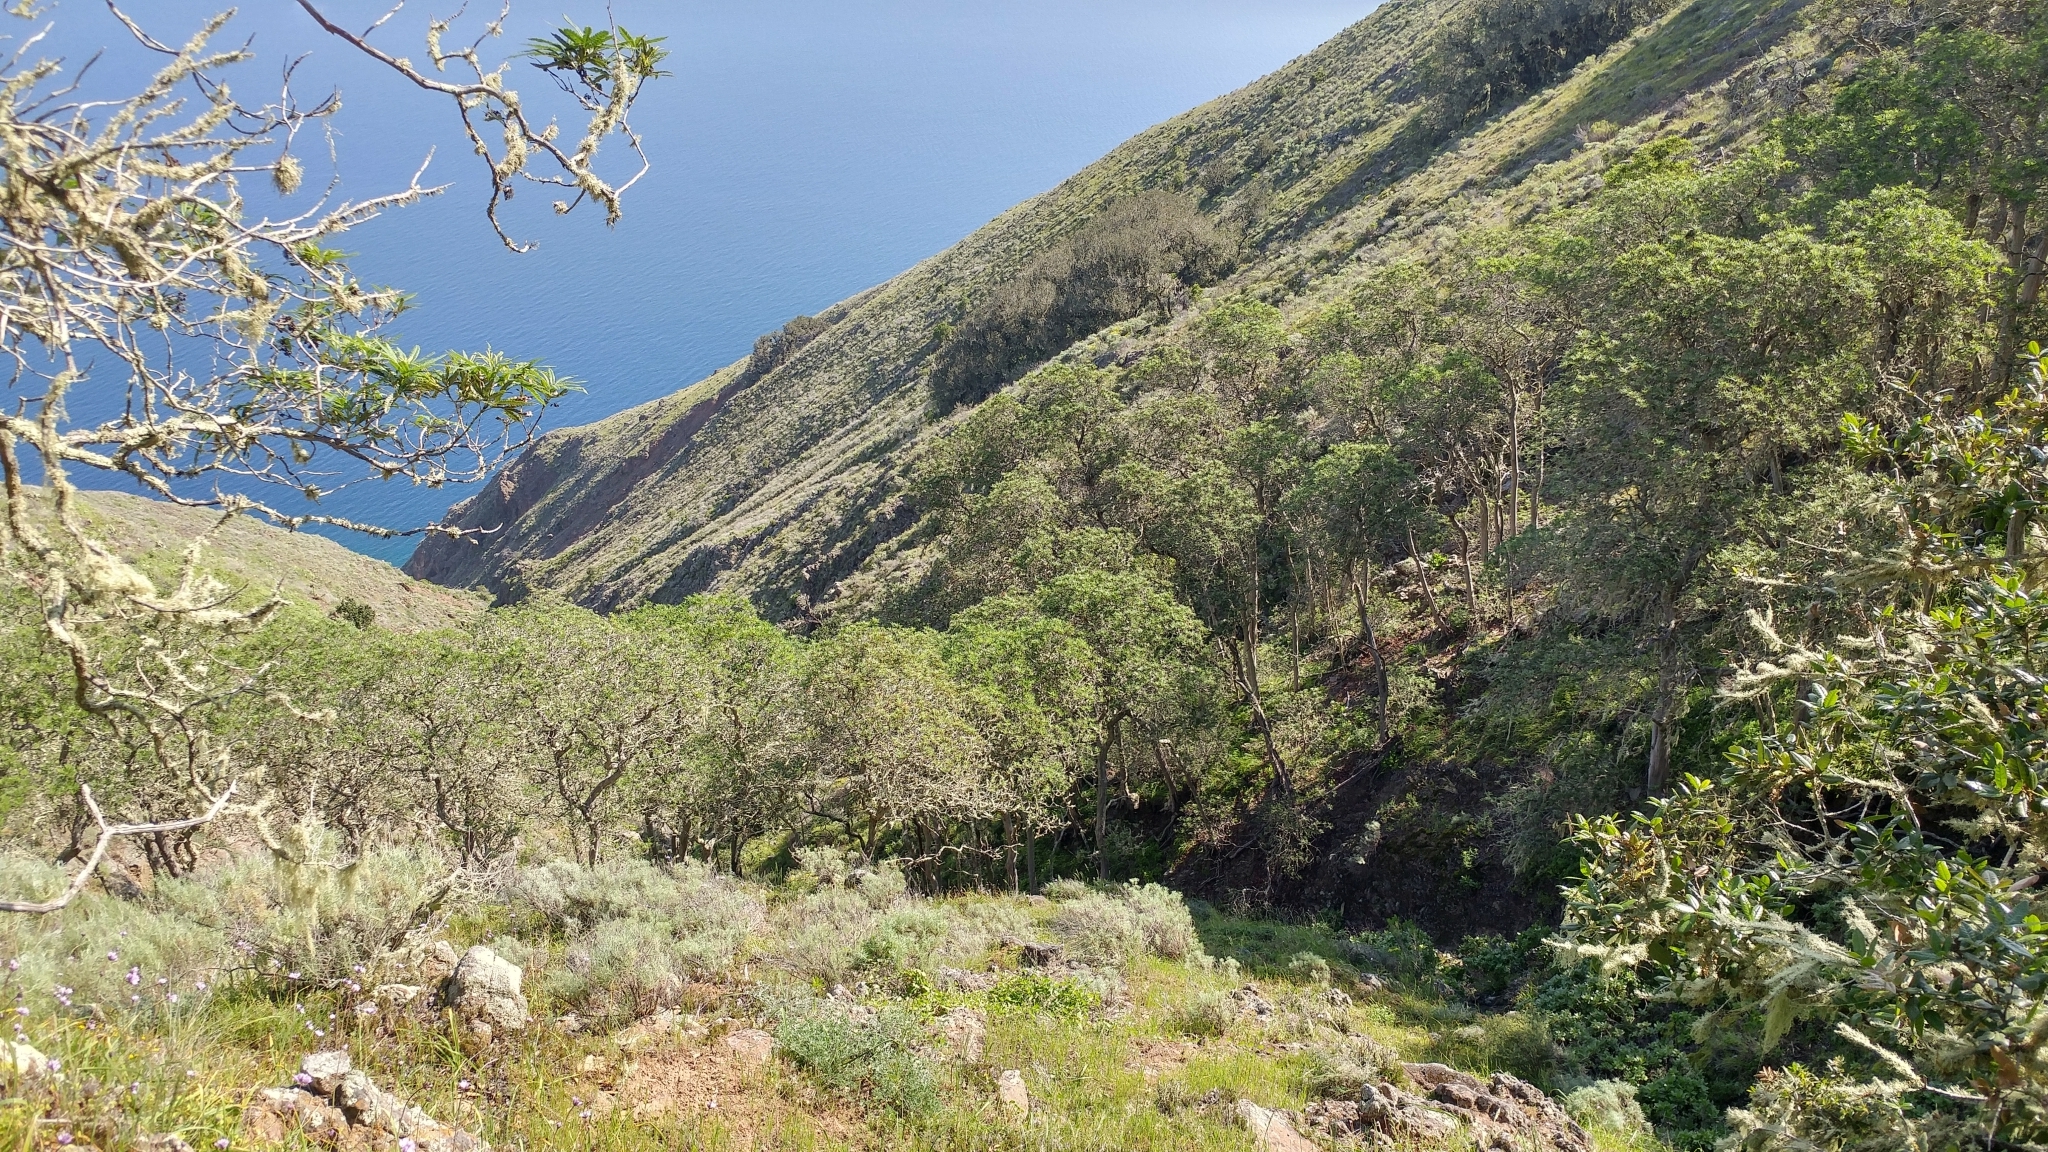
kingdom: Plantae
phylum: Tracheophyta
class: Magnoliopsida
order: Rosales
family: Rosaceae
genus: Lyonothamnus
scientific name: Lyonothamnus floribundus
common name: Catalina ironwood
